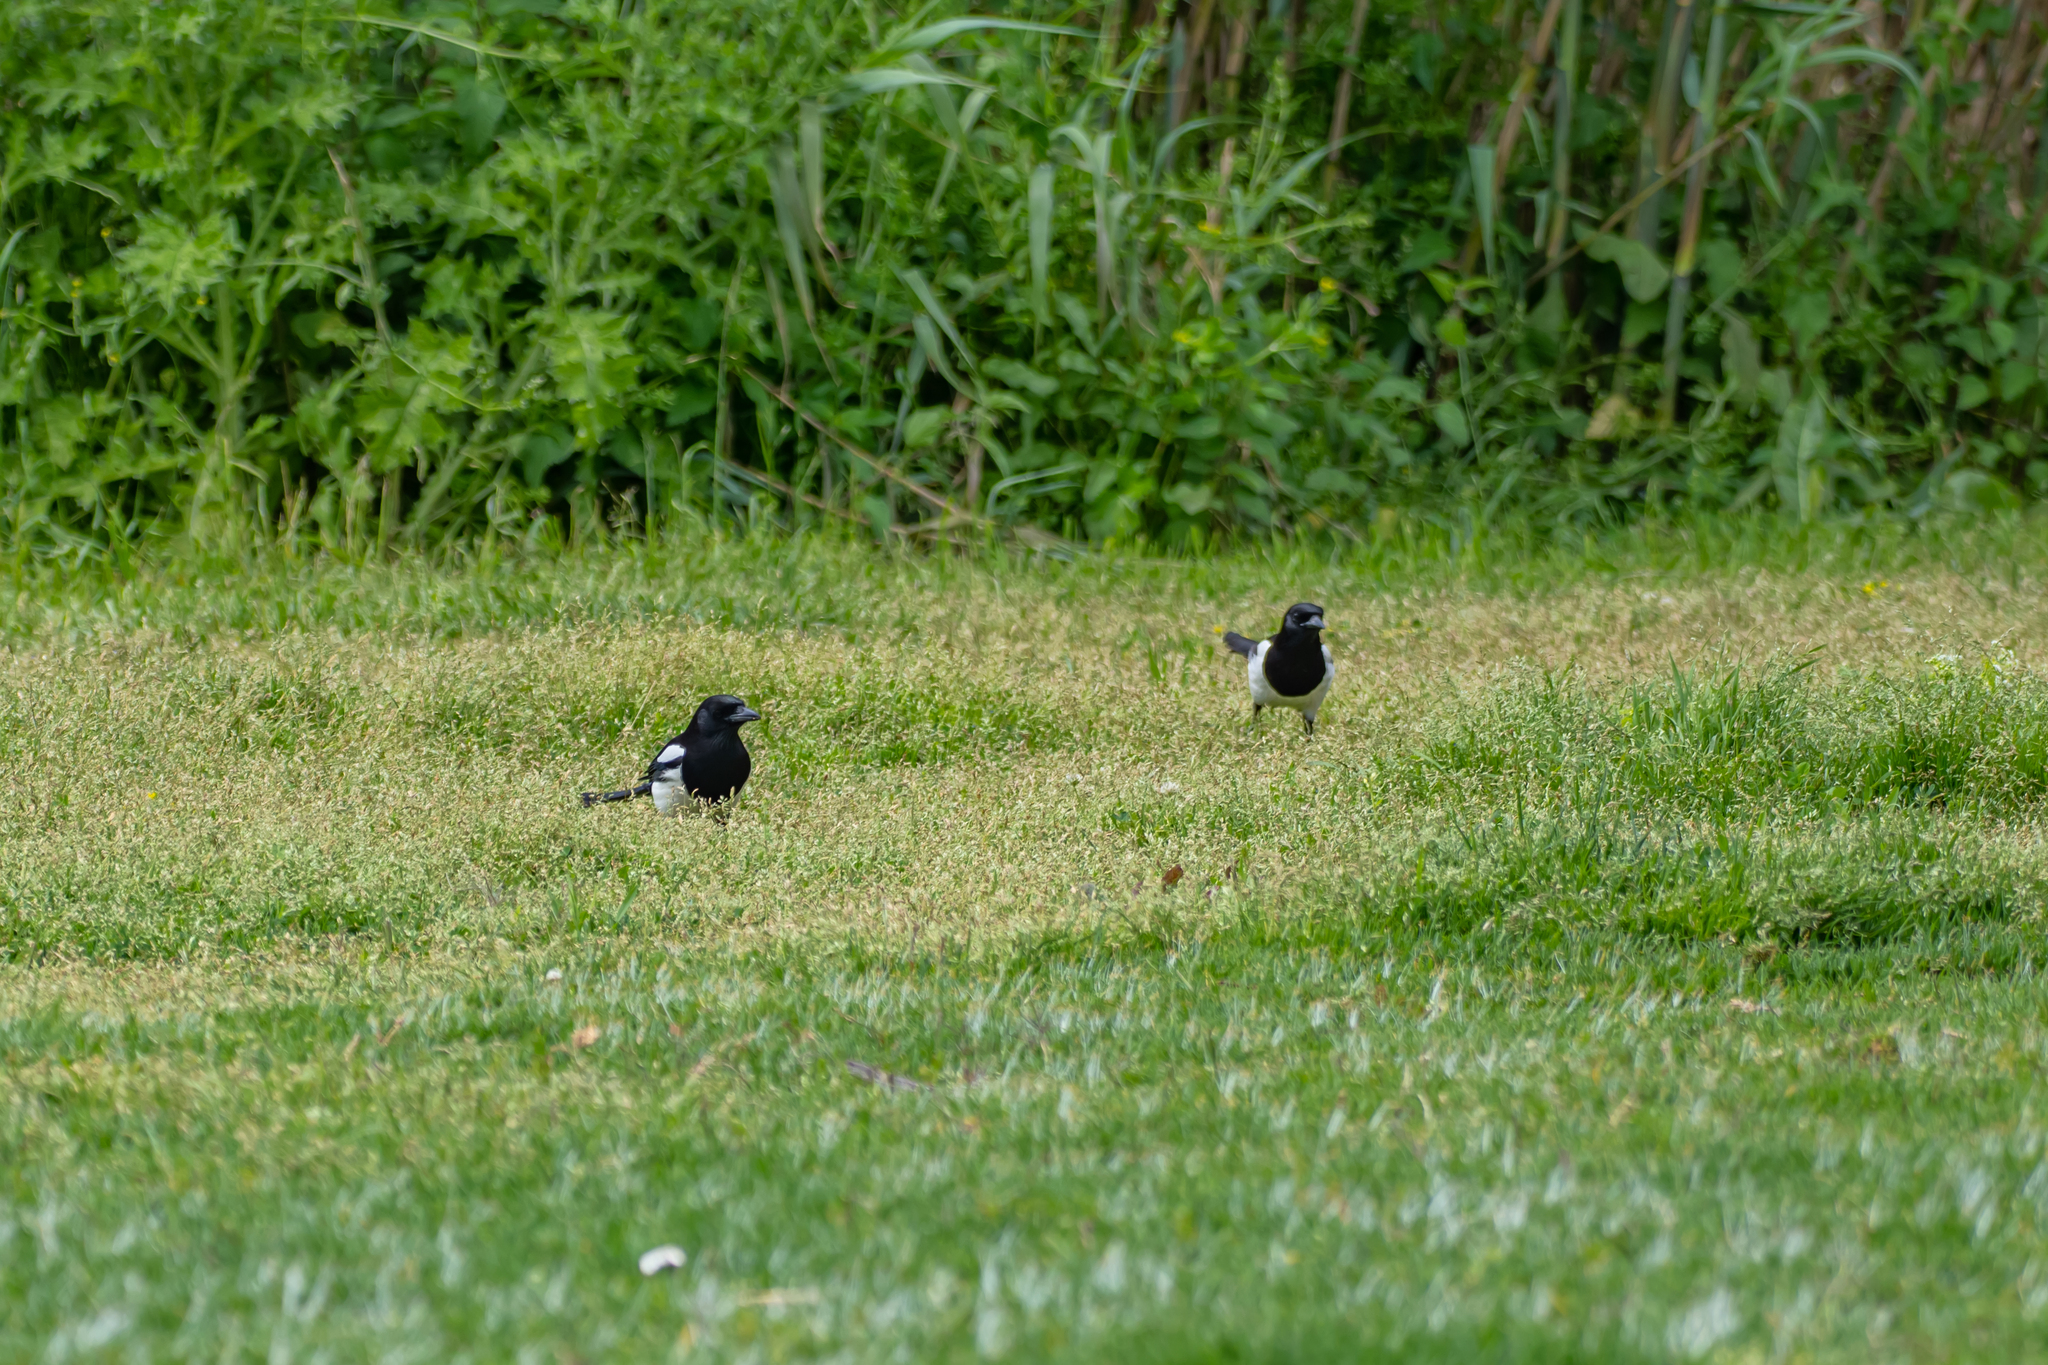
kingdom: Animalia
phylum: Chordata
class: Aves
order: Passeriformes
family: Corvidae
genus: Pica
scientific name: Pica pica
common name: Eurasian magpie
